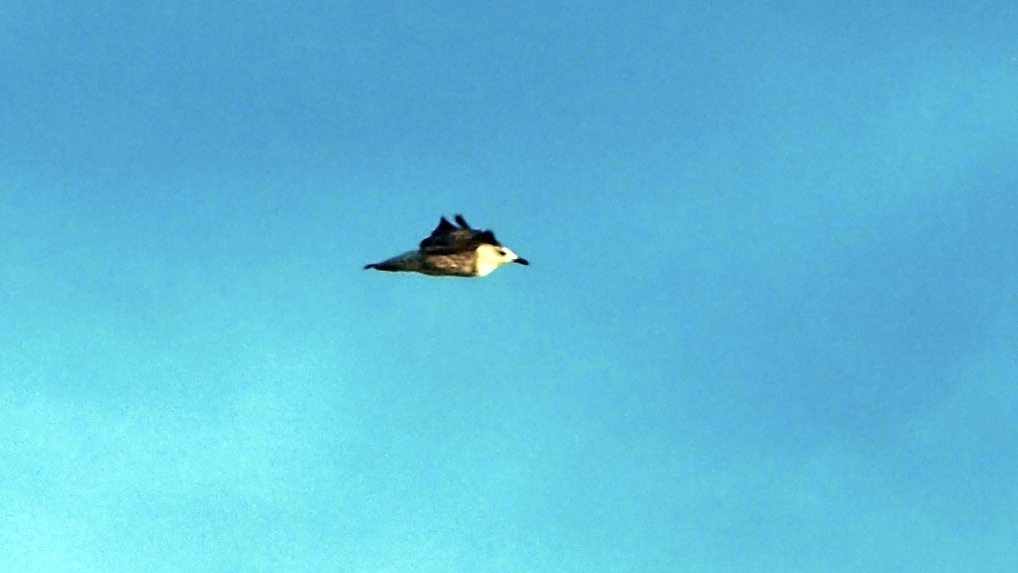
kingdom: Animalia
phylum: Chordata
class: Aves
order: Charadriiformes
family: Laridae
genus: Larus
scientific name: Larus michahellis
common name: Yellow-legged gull
